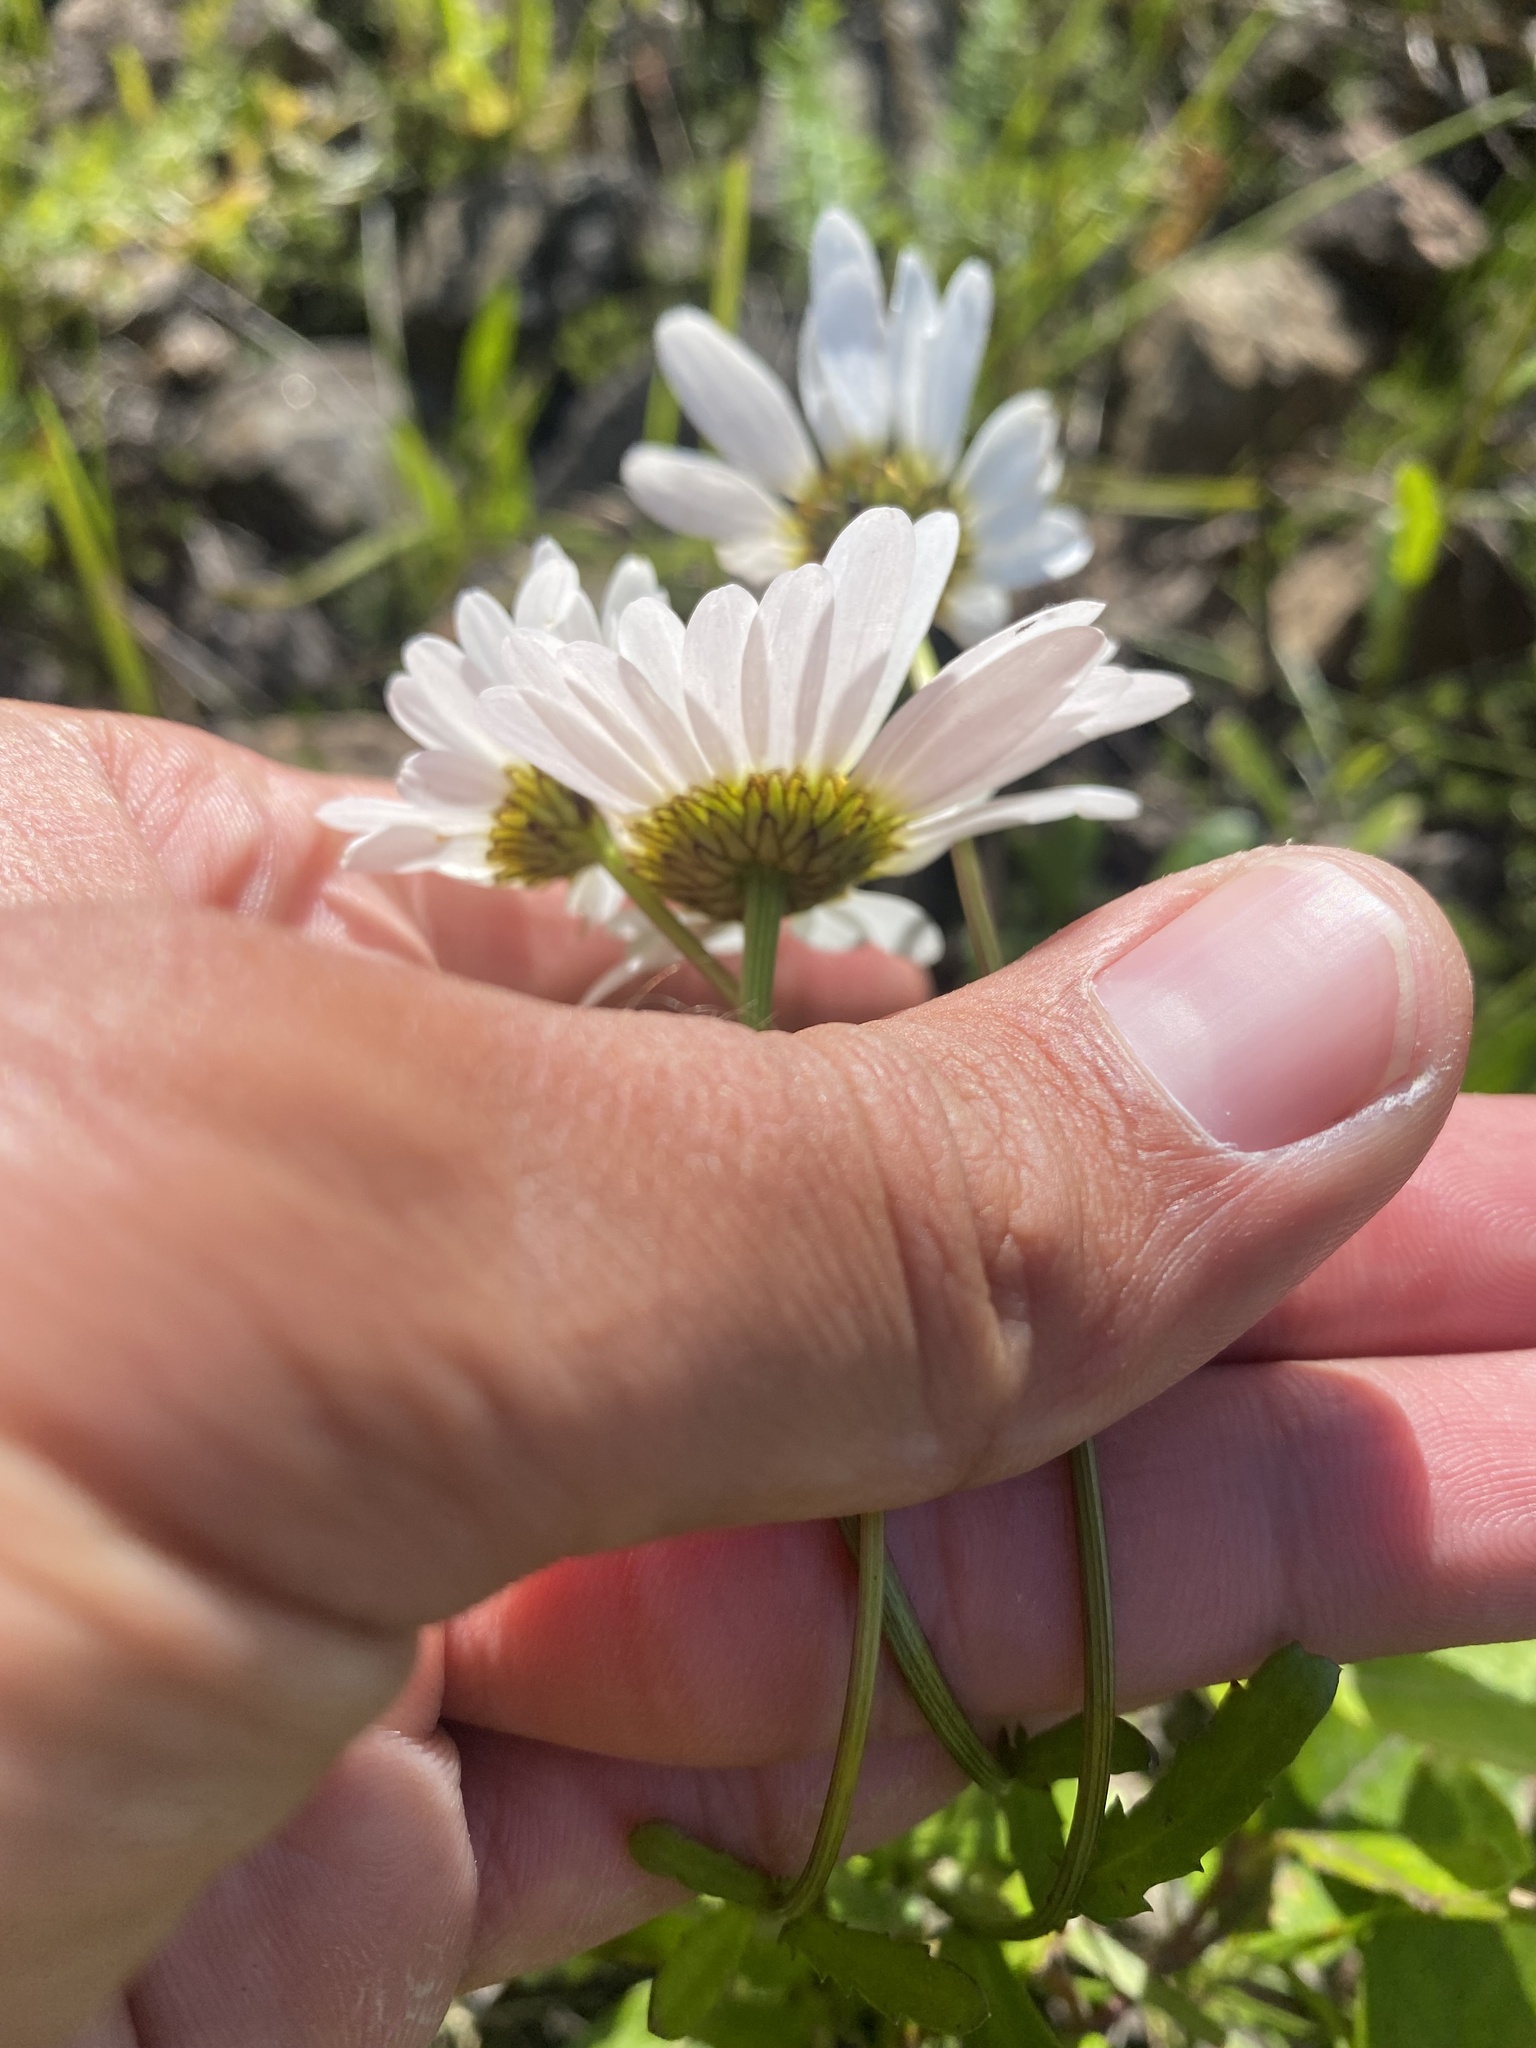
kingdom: Plantae
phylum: Tracheophyta
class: Magnoliopsida
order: Asterales
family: Asteraceae
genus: Leucanthemum
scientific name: Leucanthemum ircutianum
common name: Daisy
